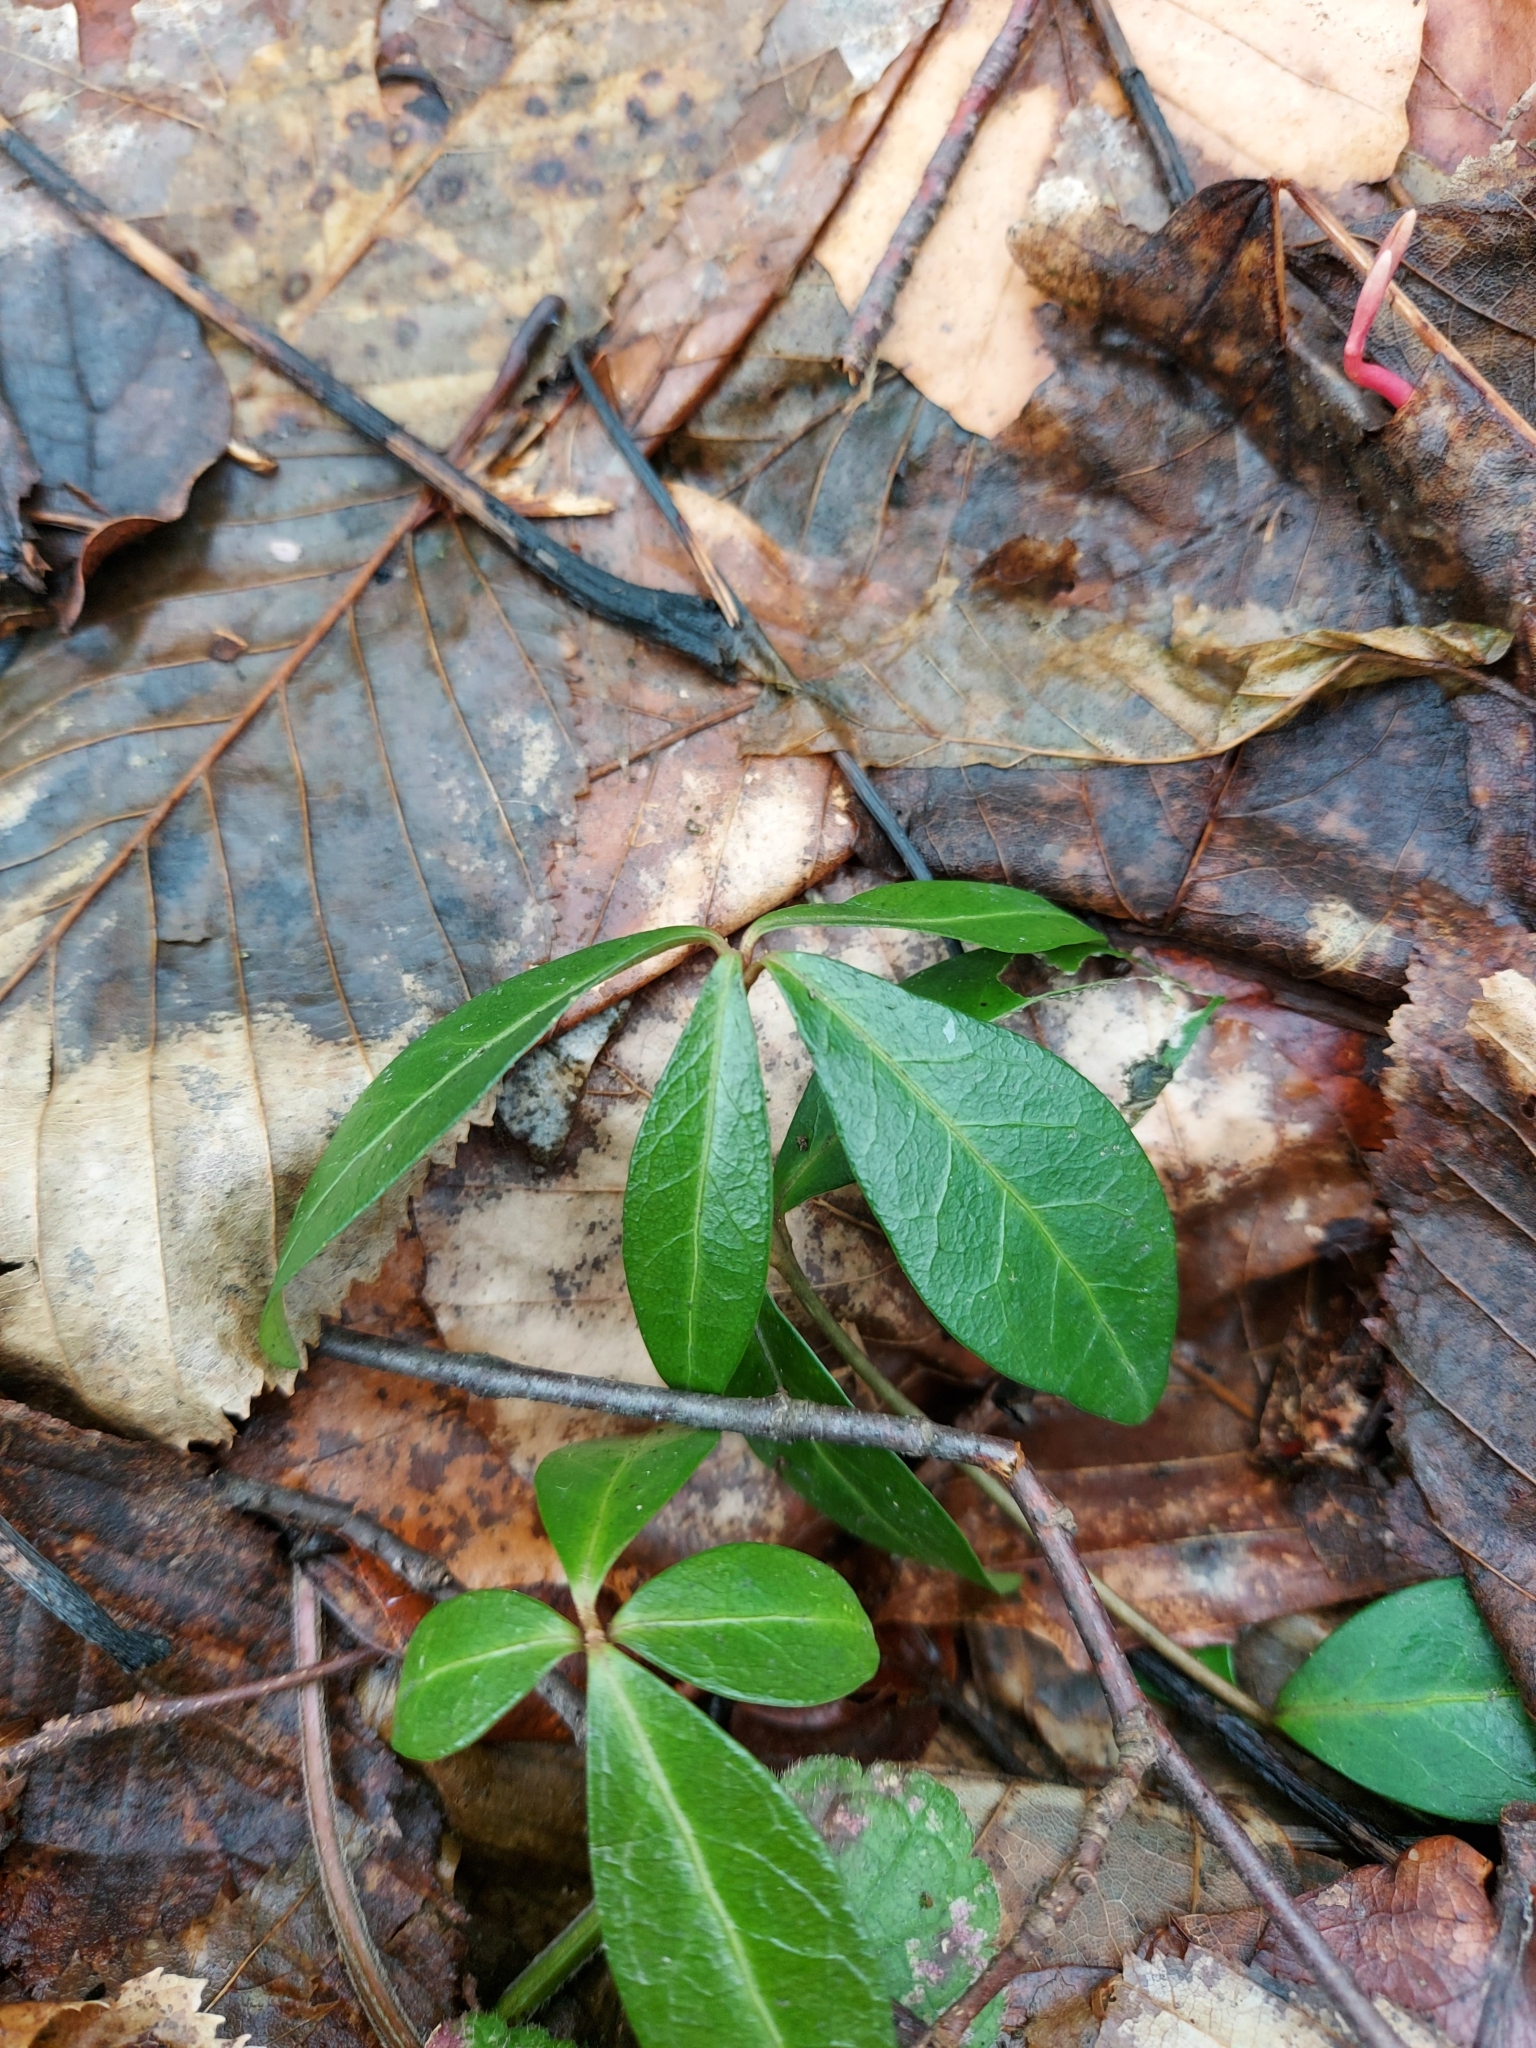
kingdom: Plantae
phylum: Tracheophyta
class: Magnoliopsida
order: Gentianales
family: Apocynaceae
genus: Vinca
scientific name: Vinca minor
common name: Lesser periwinkle
